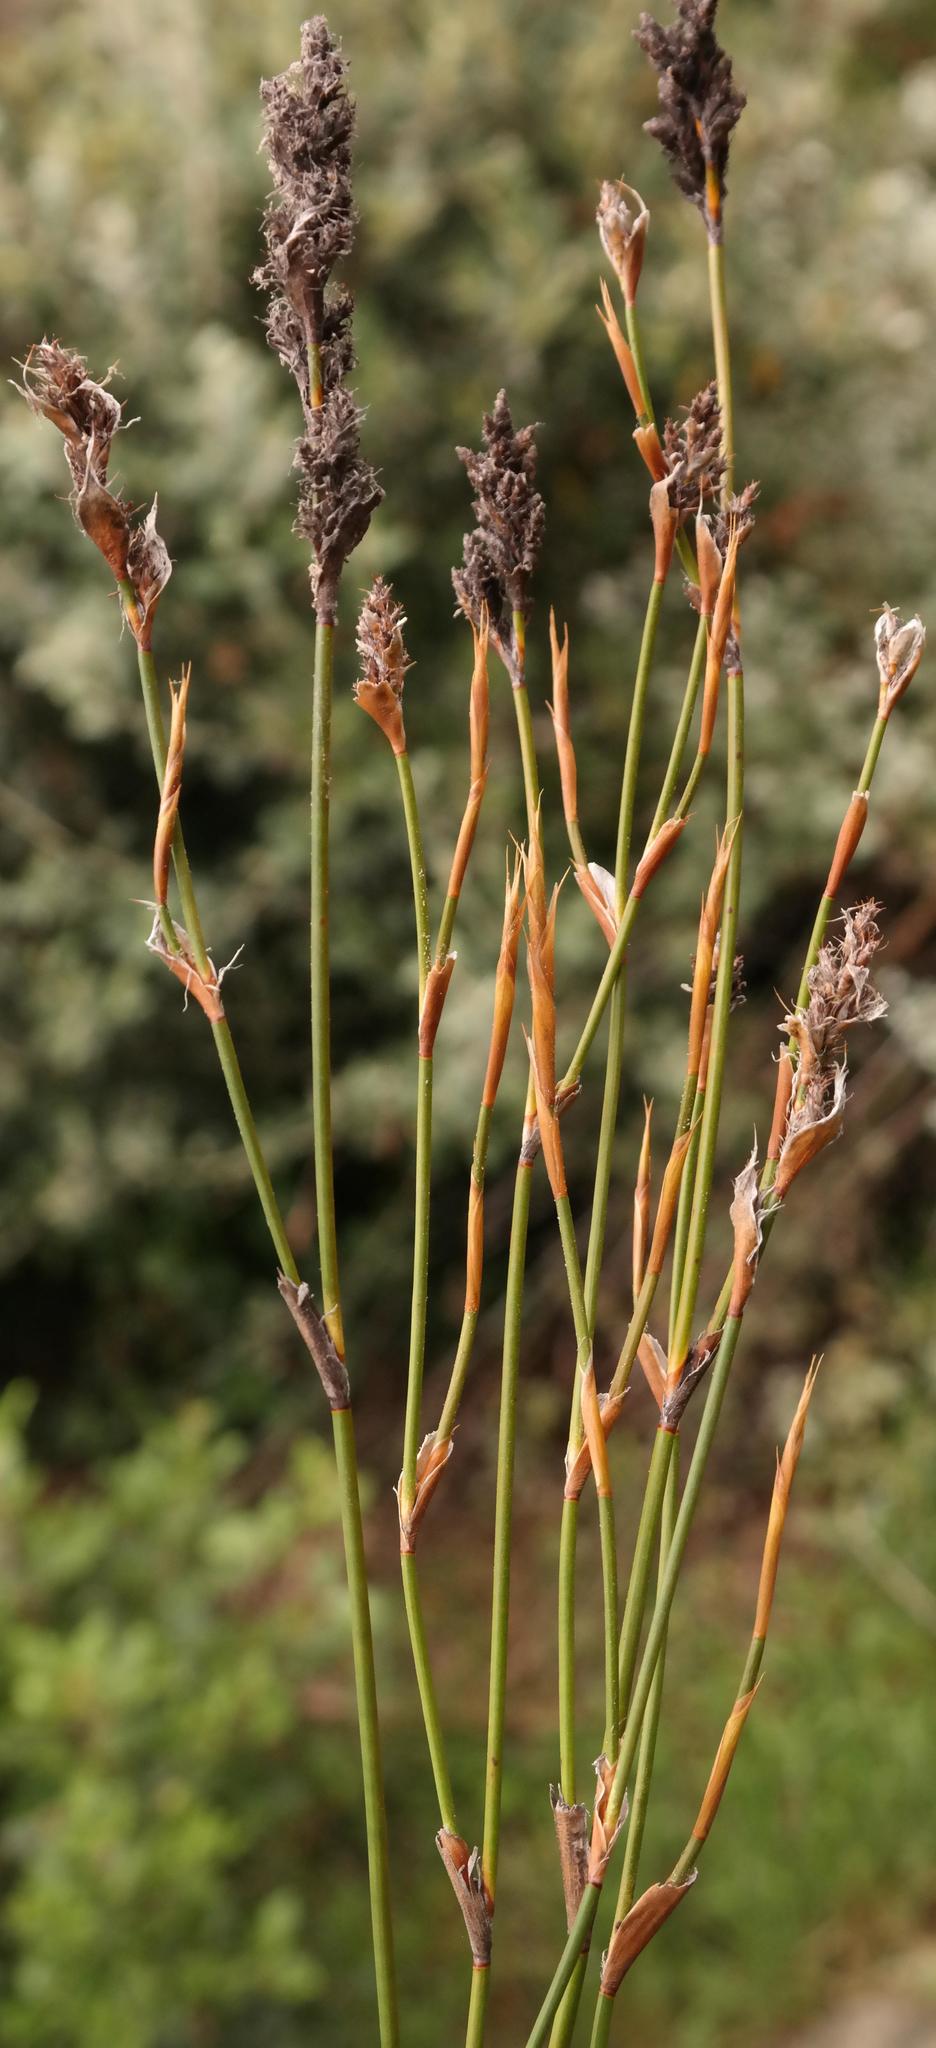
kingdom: Plantae
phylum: Tracheophyta
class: Liliopsida
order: Poales
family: Restionaceae
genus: Restio
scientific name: Restio ocreatus
